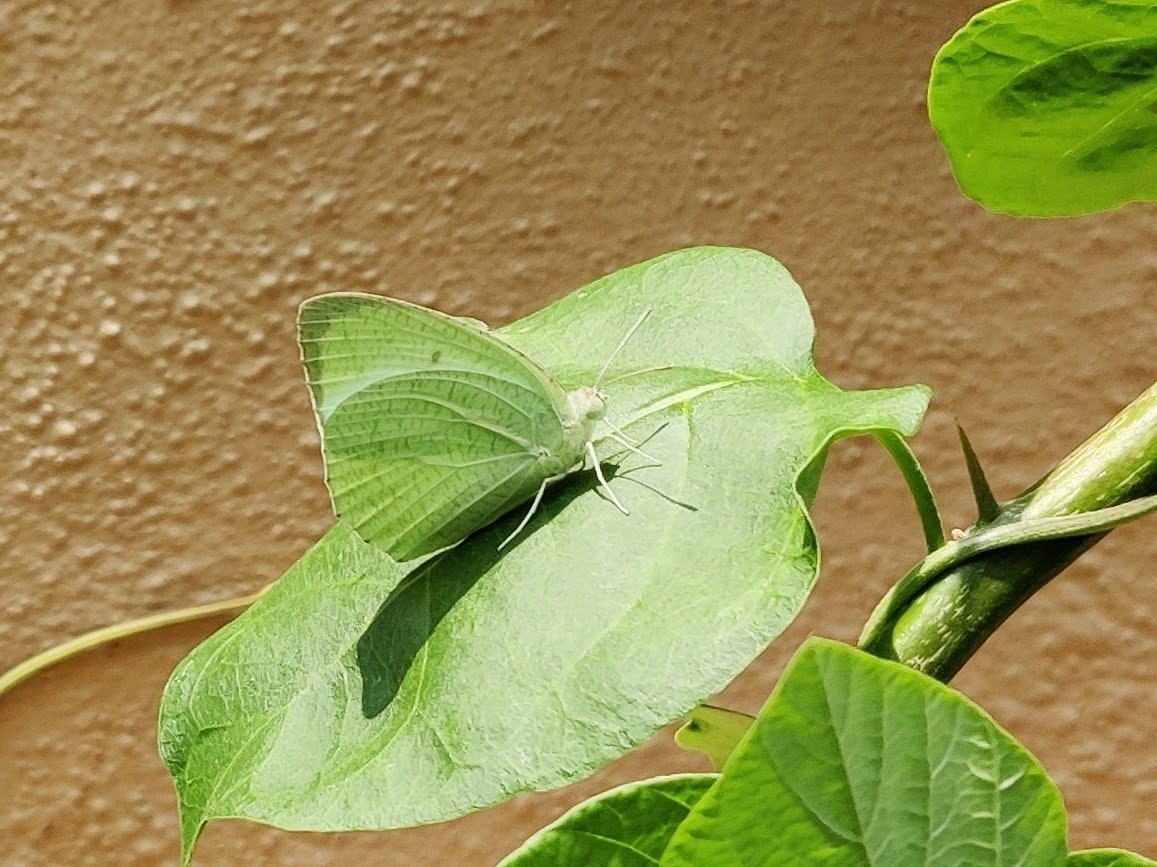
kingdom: Animalia
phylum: Arthropoda
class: Insecta
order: Lepidoptera
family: Pieridae
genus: Catopsilia
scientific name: Catopsilia pyranthe
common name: Mottled emigrant
